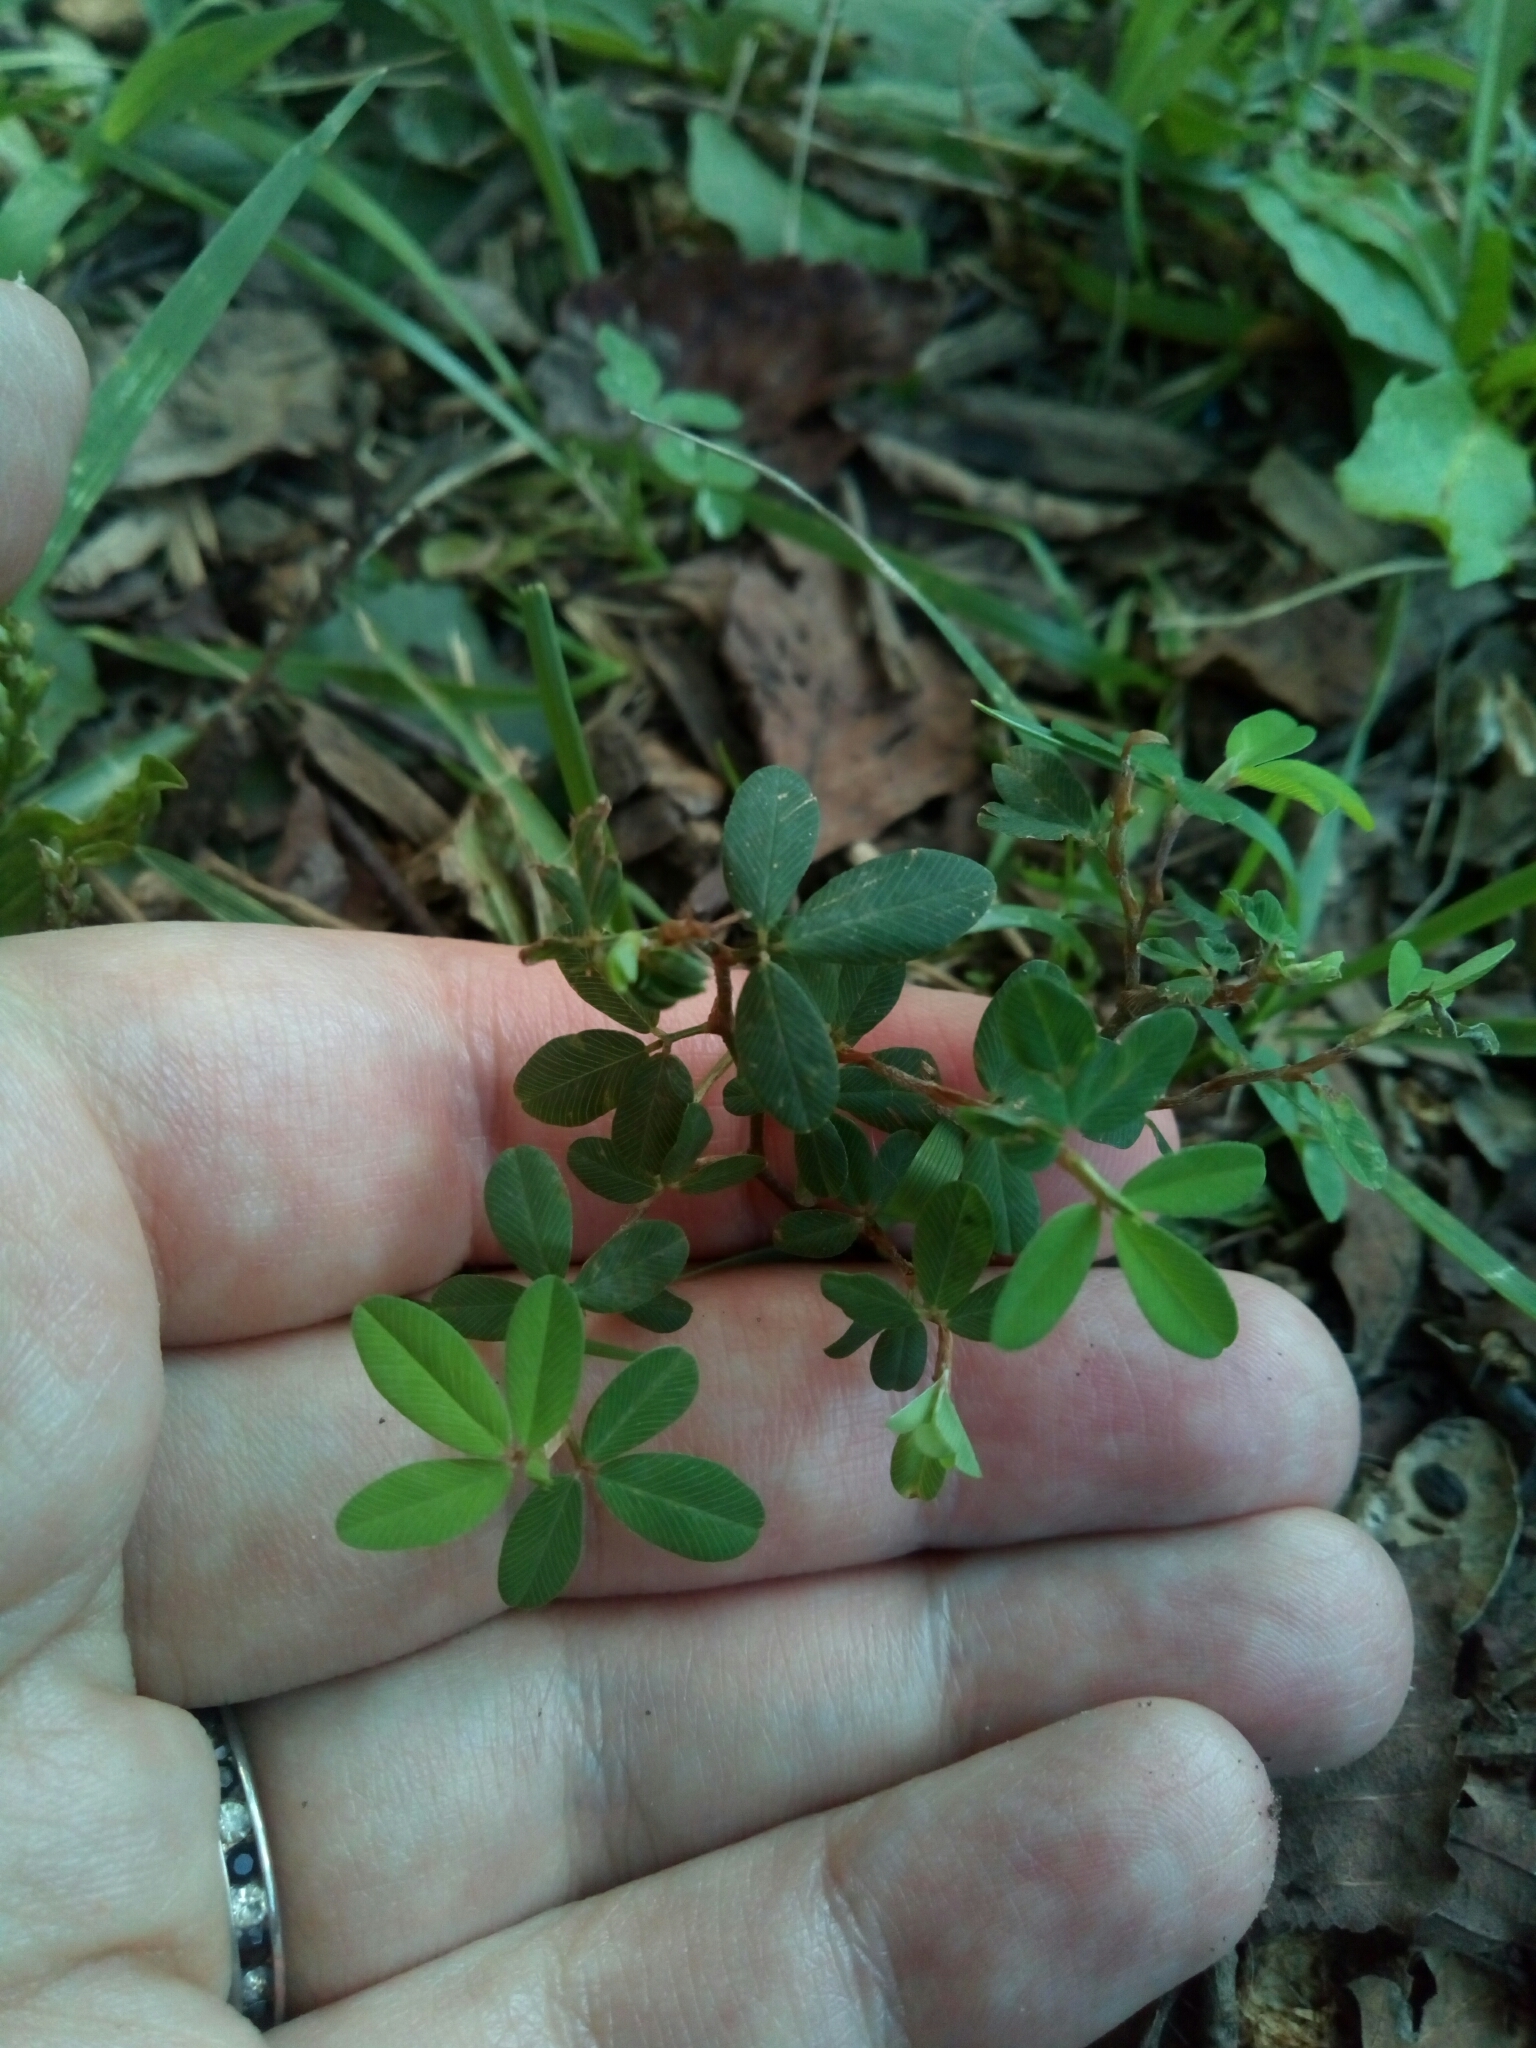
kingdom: Plantae
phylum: Tracheophyta
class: Magnoliopsida
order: Fabales
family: Fabaceae
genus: Kummerowia
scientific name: Kummerowia striata
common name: Japanese clover
